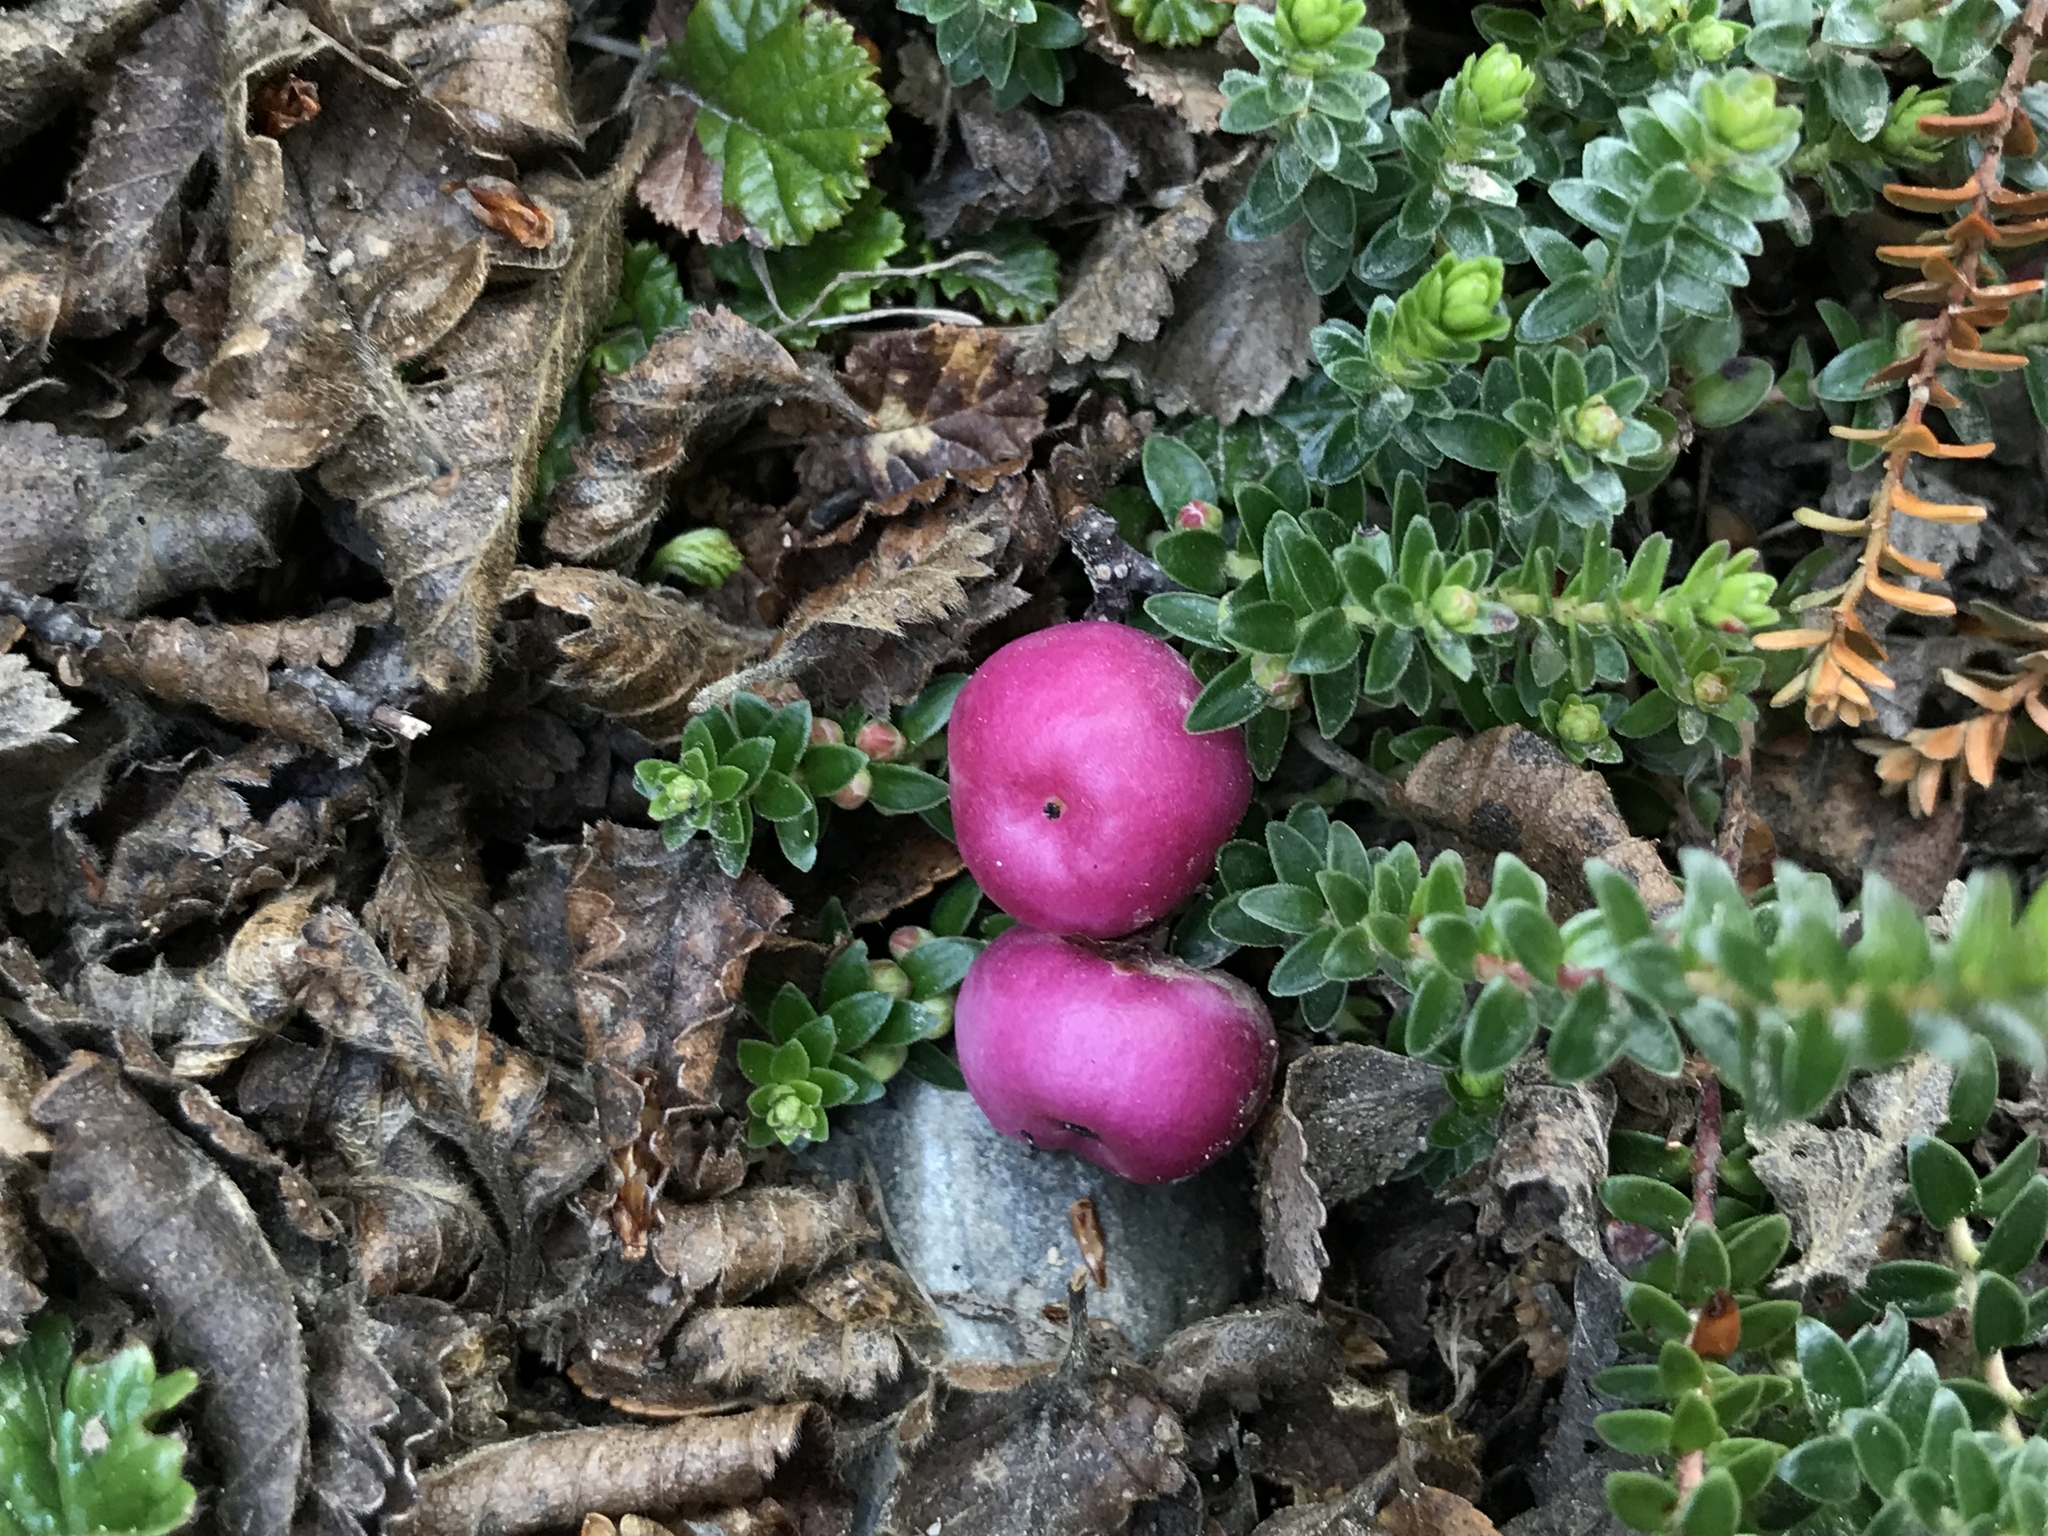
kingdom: Plantae
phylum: Tracheophyta
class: Magnoliopsida
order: Ericales
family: Ericaceae
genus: Gaultheria
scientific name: Gaultheria pumila
